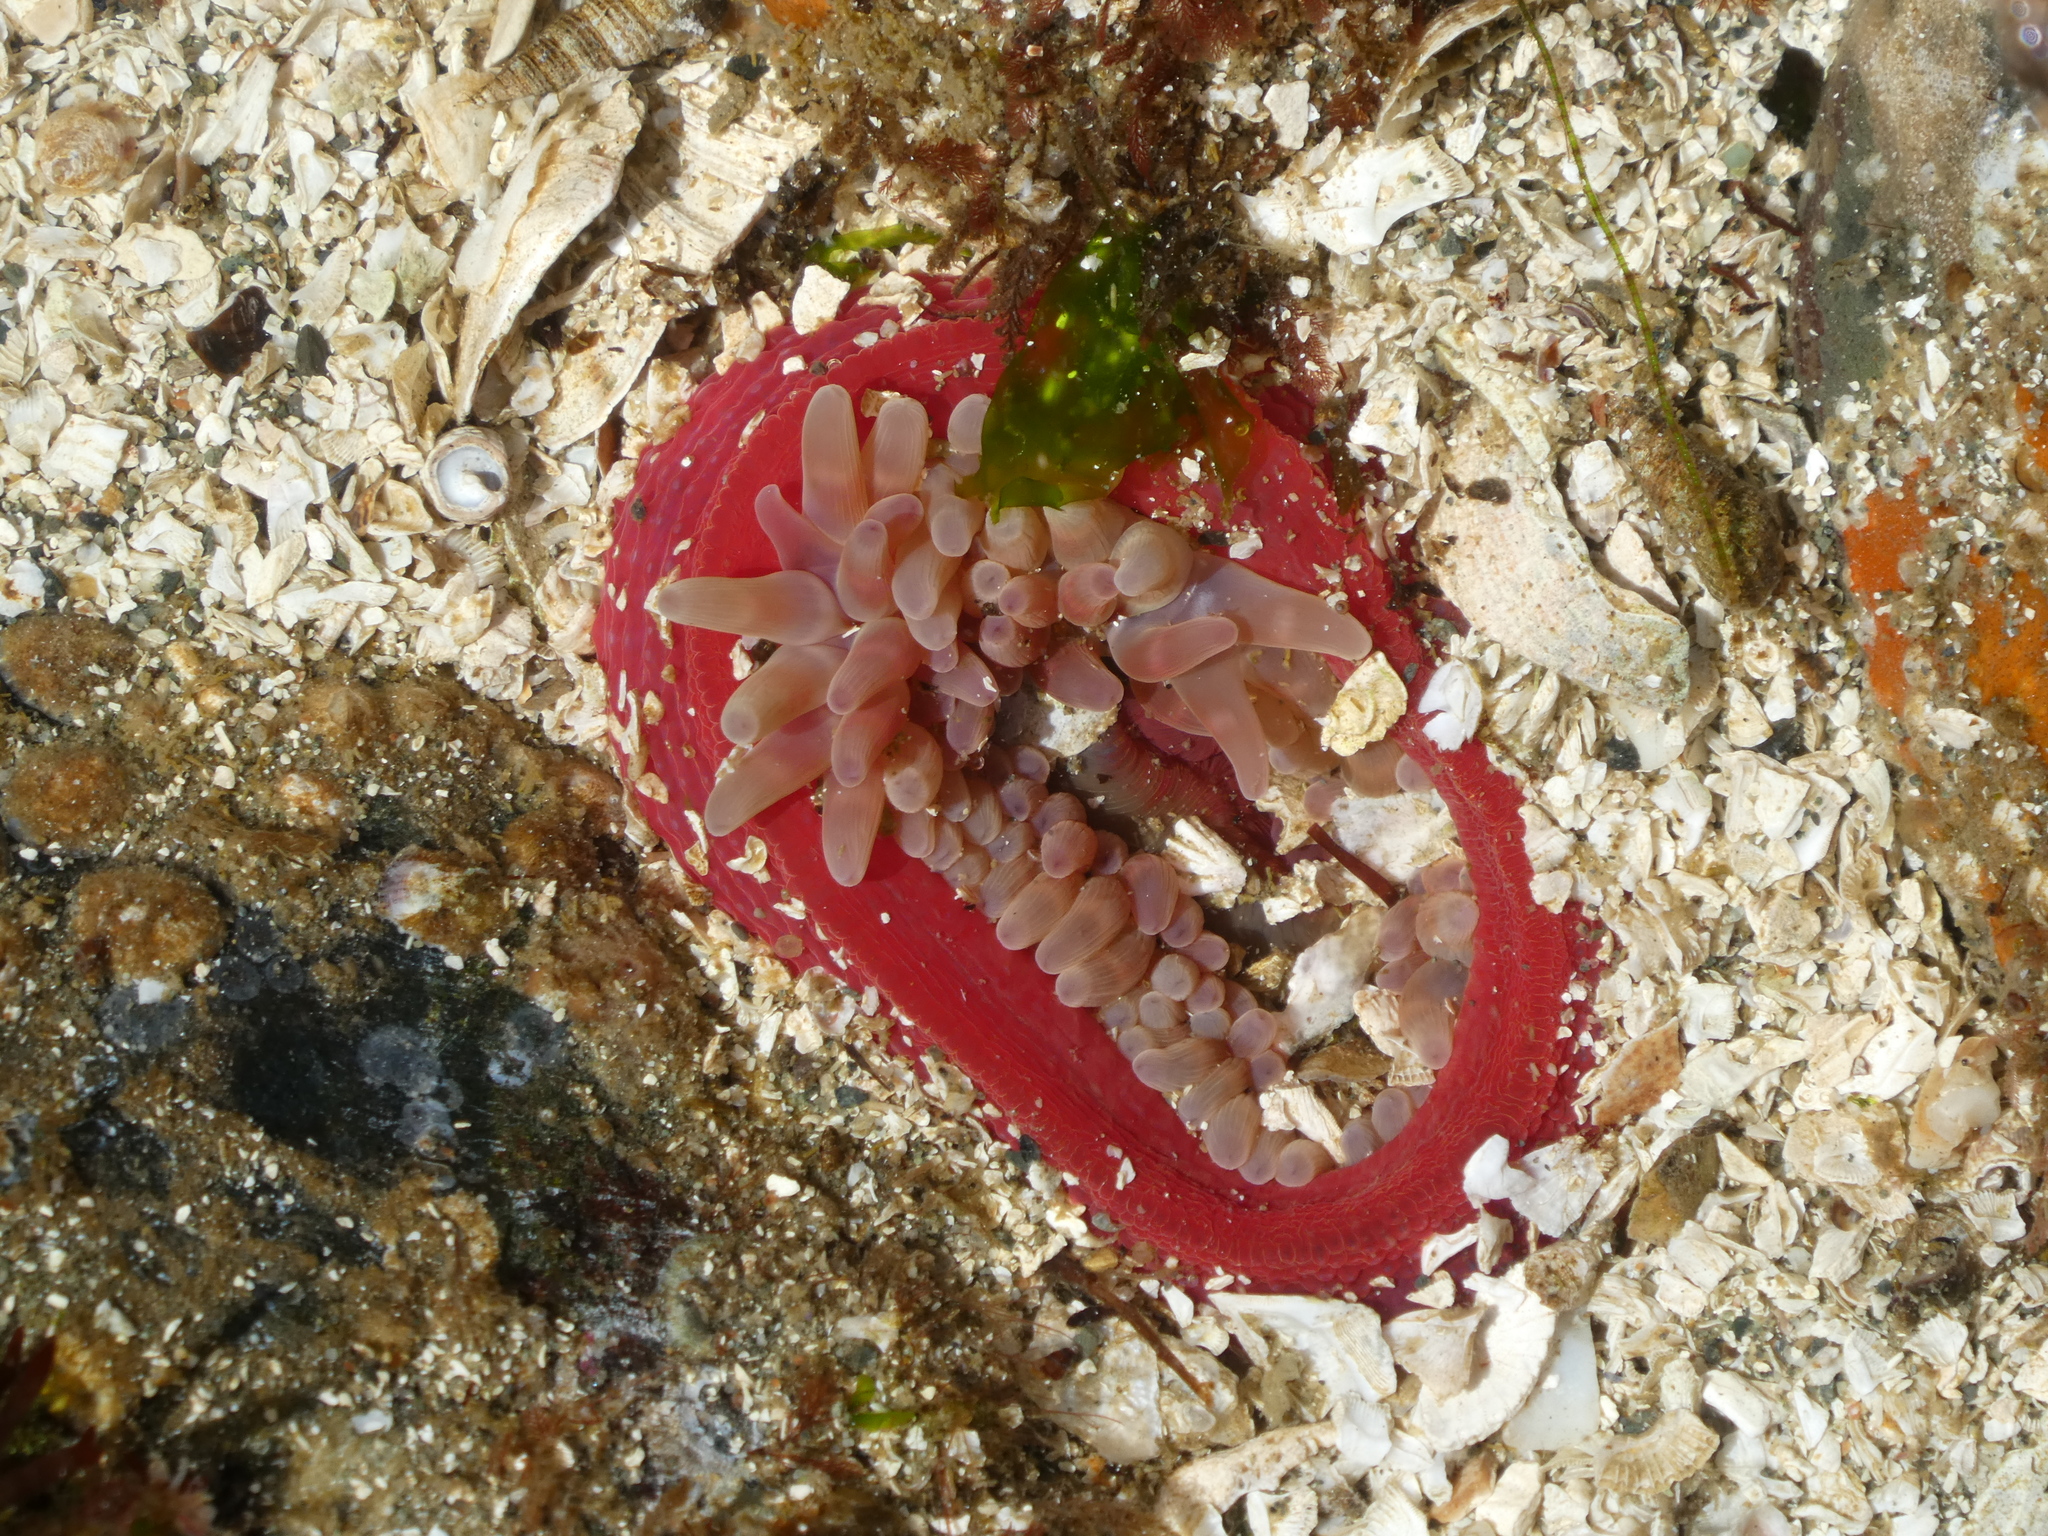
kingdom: Animalia
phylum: Cnidaria
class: Anthozoa
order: Actiniaria
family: Actiniidae
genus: Urticina
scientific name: Urticina clandestina
